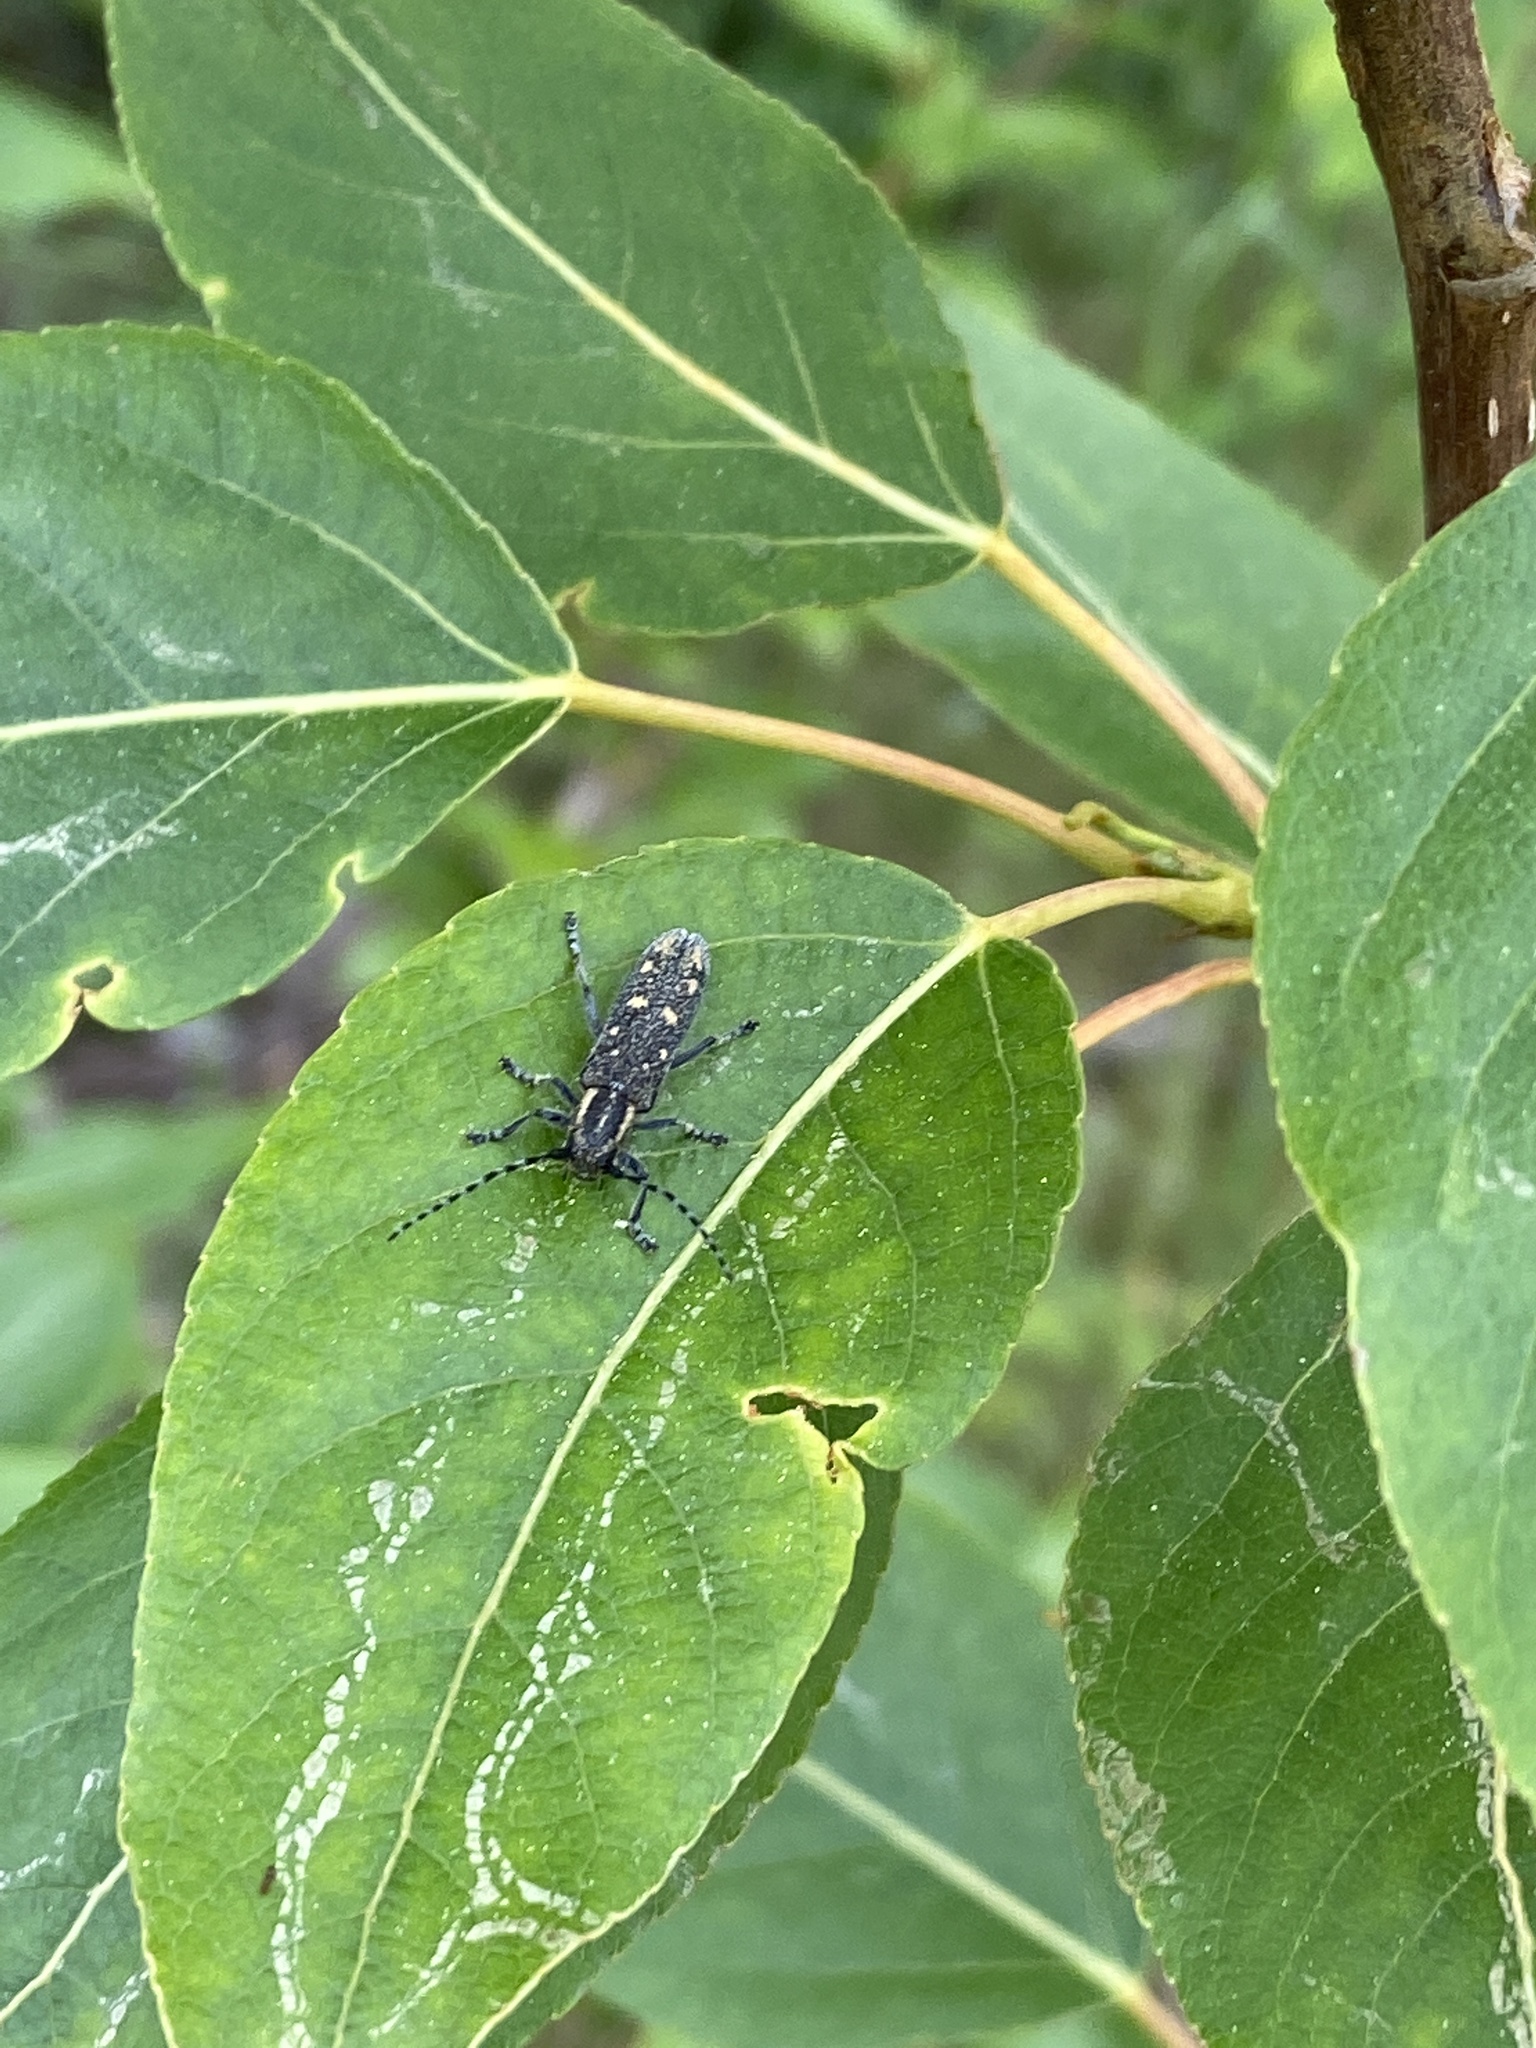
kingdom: Animalia
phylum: Arthropoda
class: Insecta
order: Coleoptera
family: Cerambycidae
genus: Saperda
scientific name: Saperda populnea
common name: Small poplar borer
